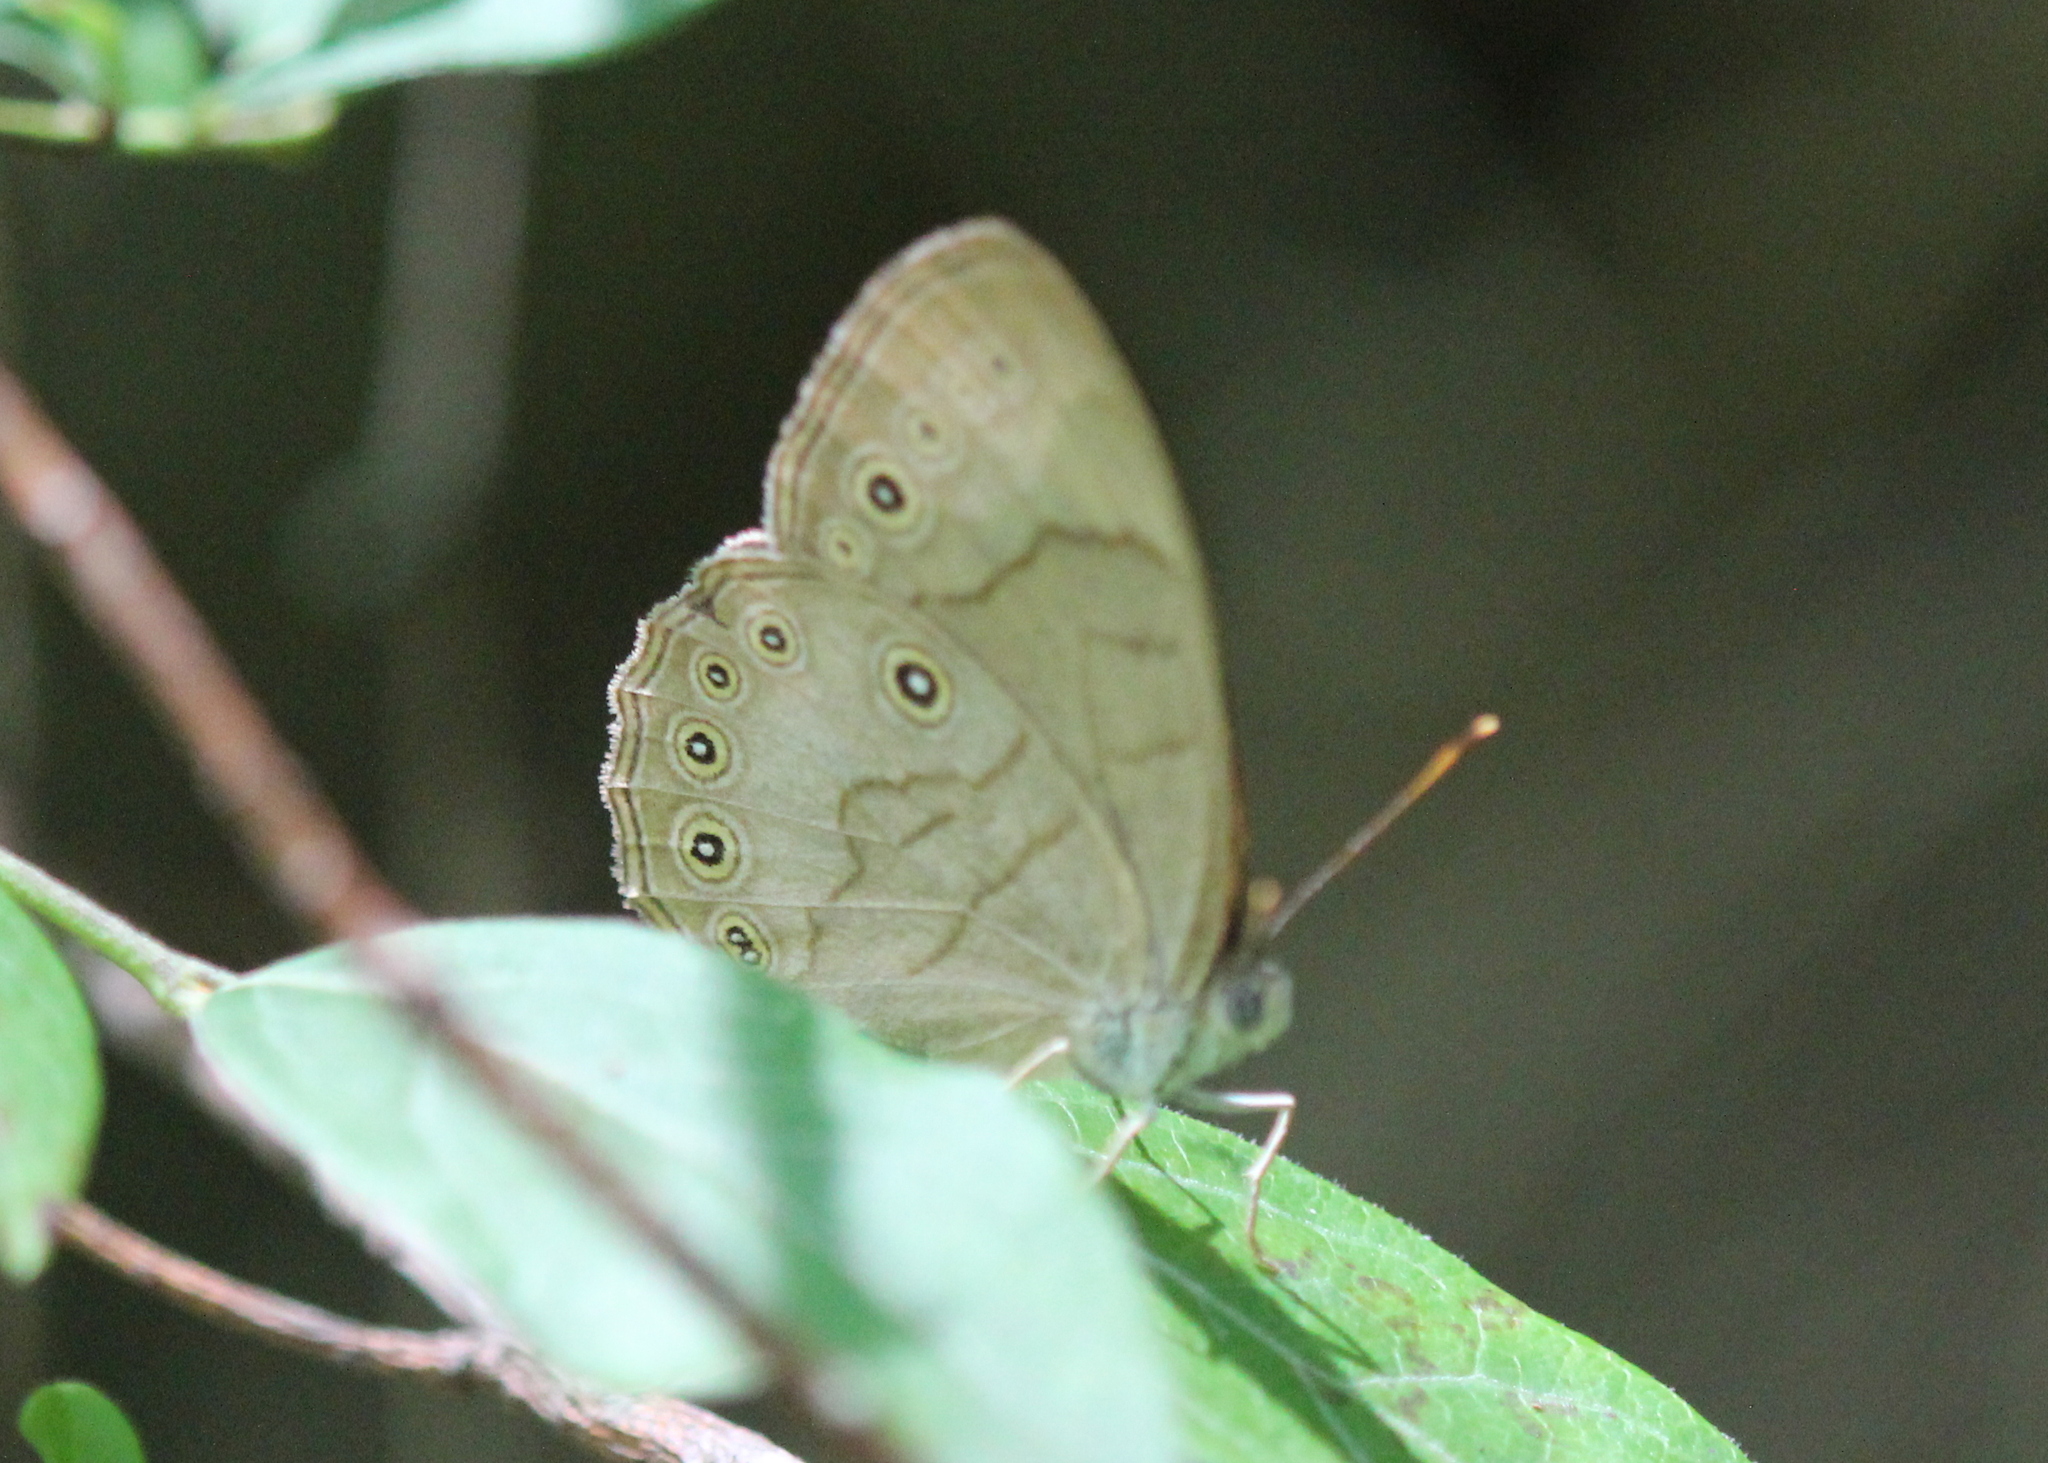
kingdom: Animalia
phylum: Arthropoda
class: Insecta
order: Lepidoptera
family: Nymphalidae
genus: Lethe
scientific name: Lethe eurydice
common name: Eyed brown
